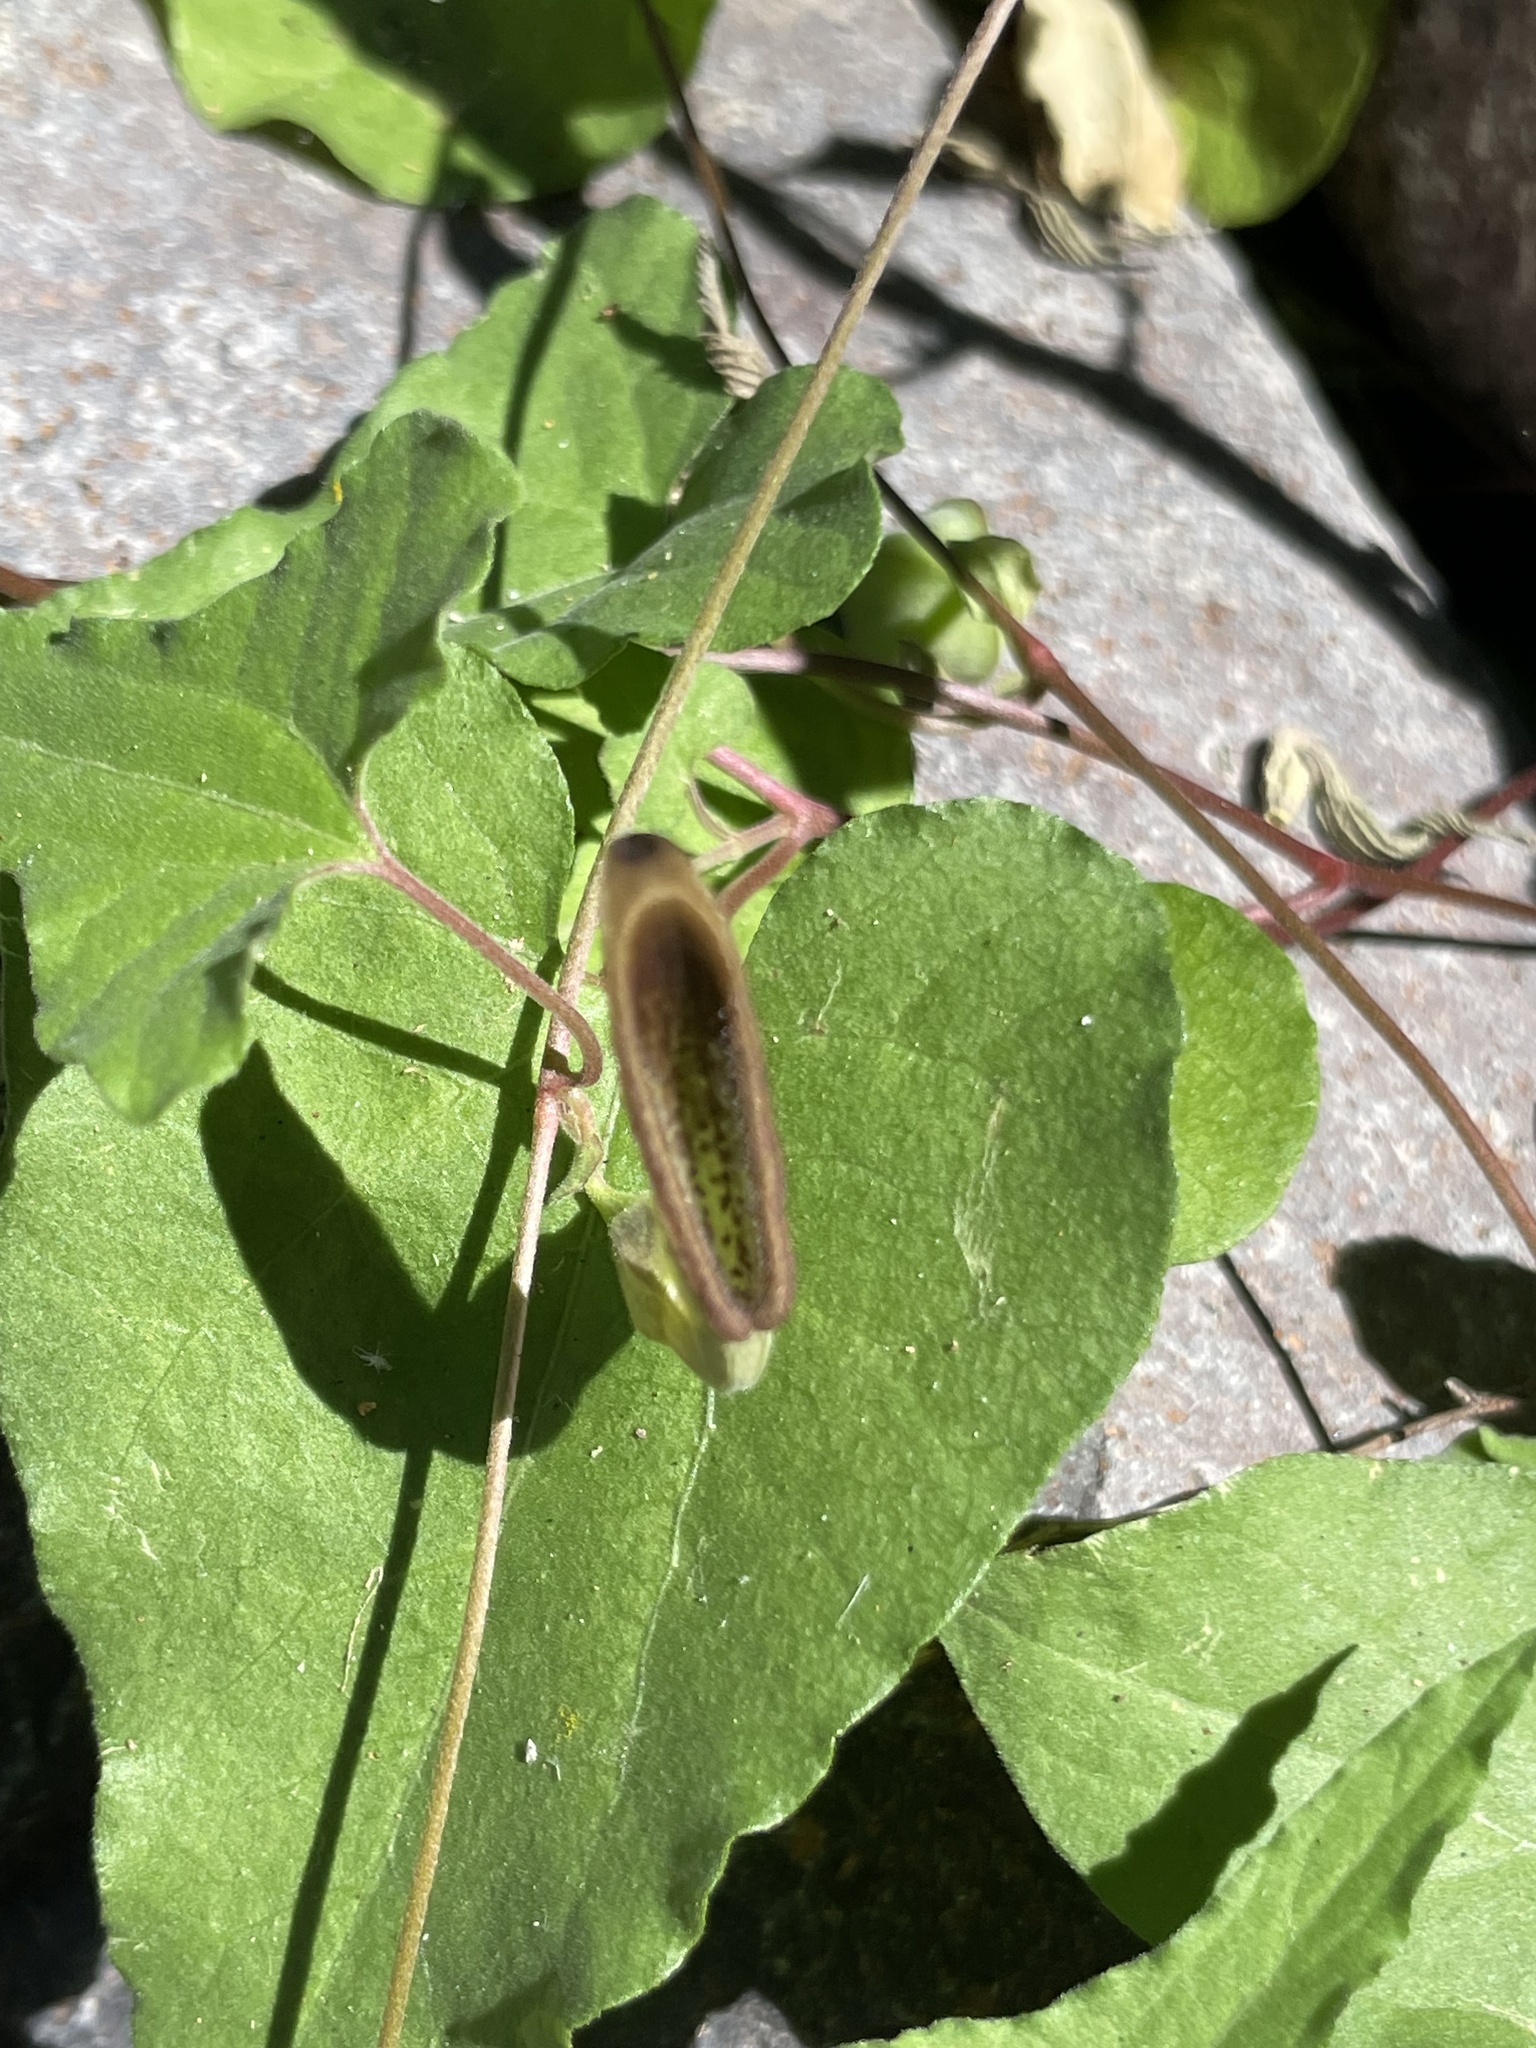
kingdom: Plantae
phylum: Tracheophyta
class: Magnoliopsida
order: Piperales
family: Aristolochiaceae
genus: Aristolochia
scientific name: Aristolochia watsonii
